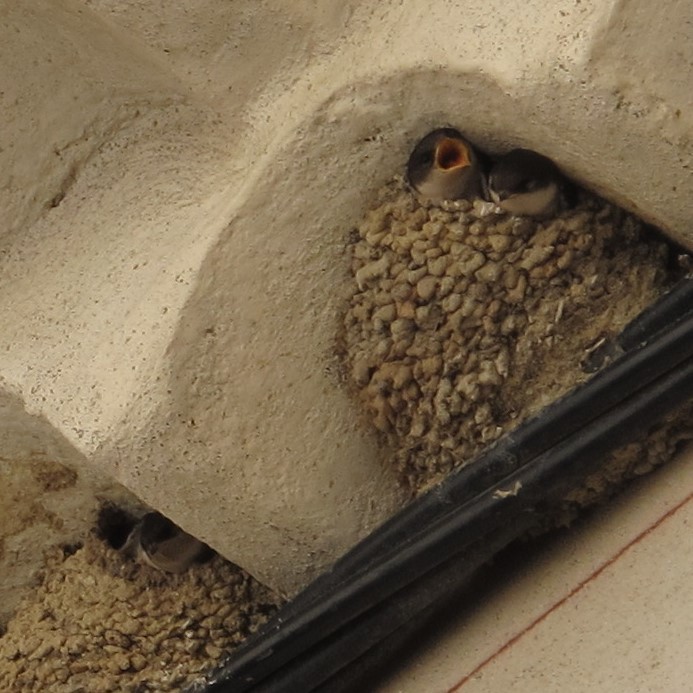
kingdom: Animalia
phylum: Chordata
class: Aves
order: Passeriformes
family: Hirundinidae
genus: Delichon
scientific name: Delichon urbicum
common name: Common house martin
